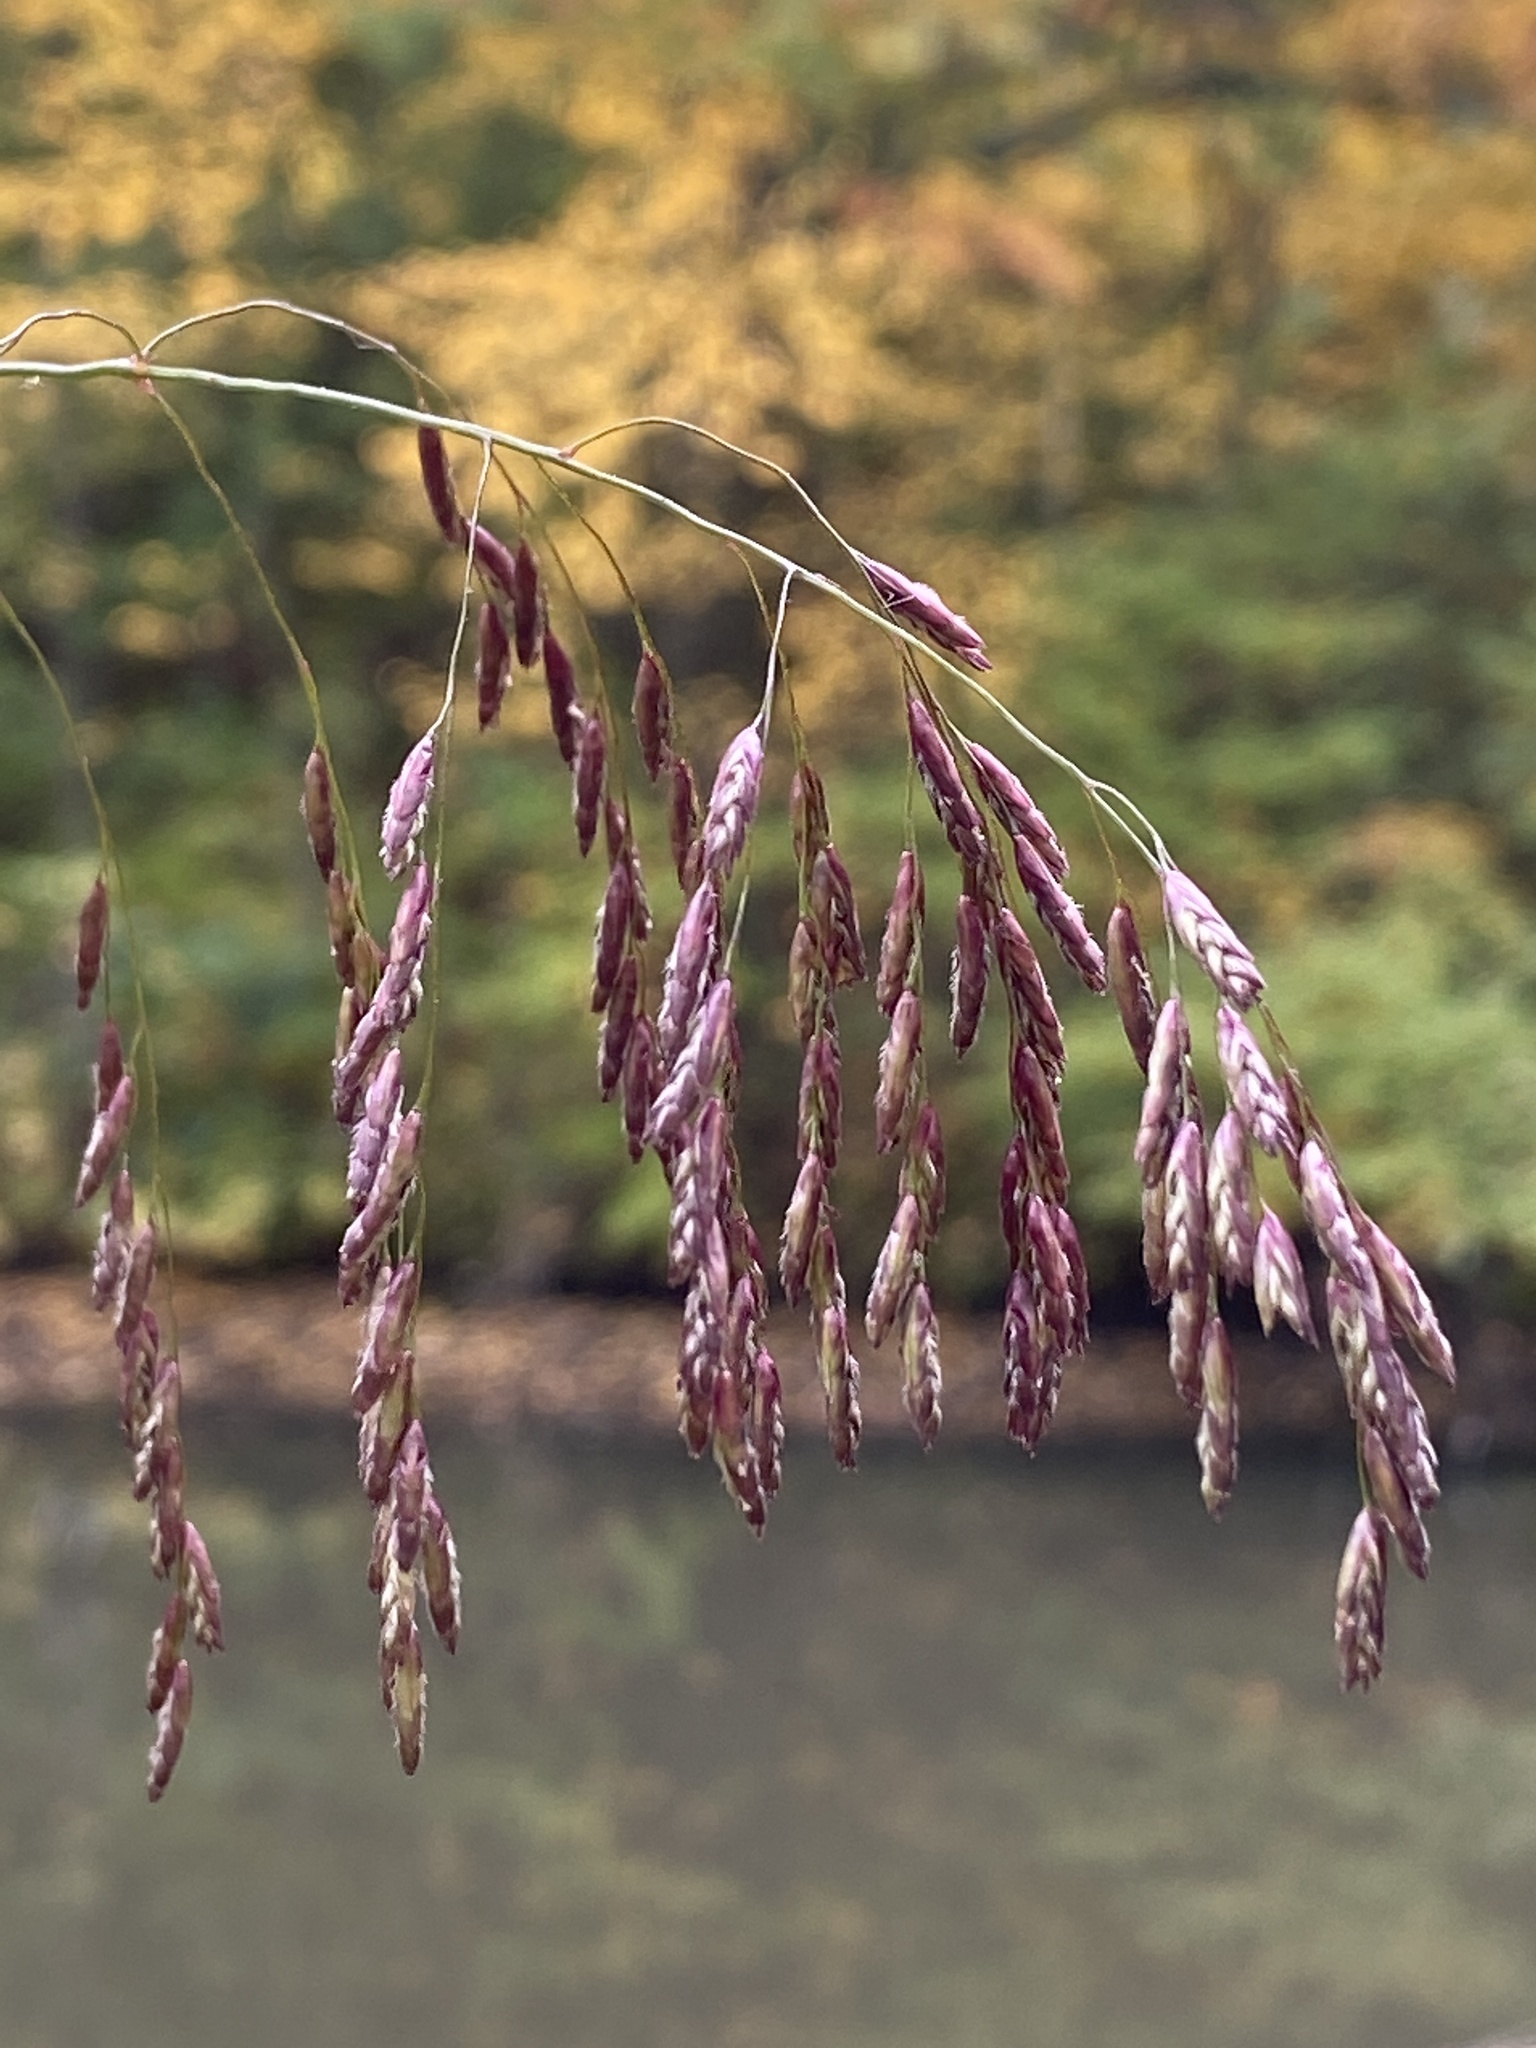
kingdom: Plantae
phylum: Tracheophyta
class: Liliopsida
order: Poales
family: Poaceae
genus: Tridens
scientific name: Tridens flavus
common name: Purpletop
